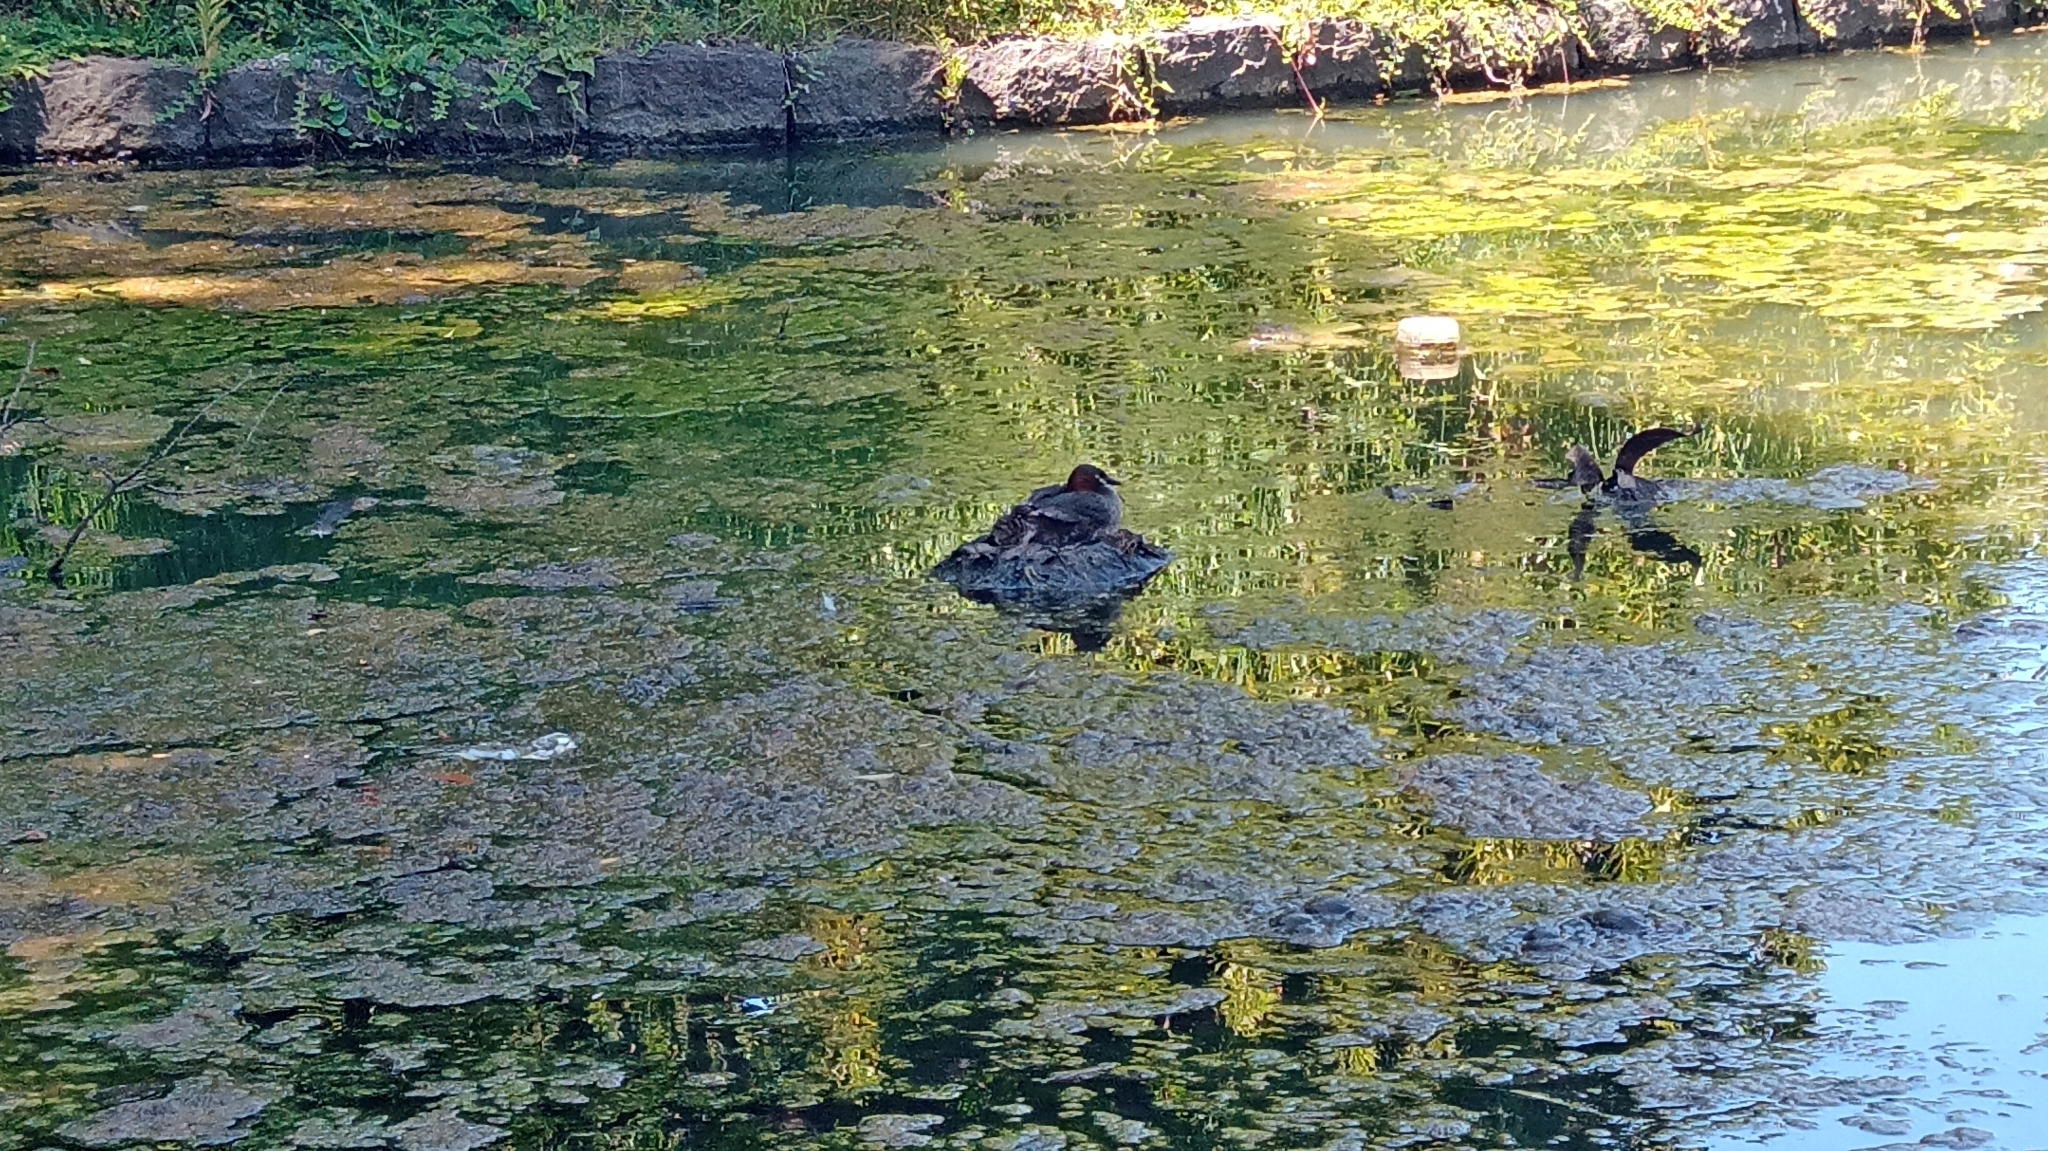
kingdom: Animalia
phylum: Chordata
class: Aves
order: Podicipediformes
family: Podicipedidae
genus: Tachybaptus
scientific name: Tachybaptus ruficollis
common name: Little grebe
